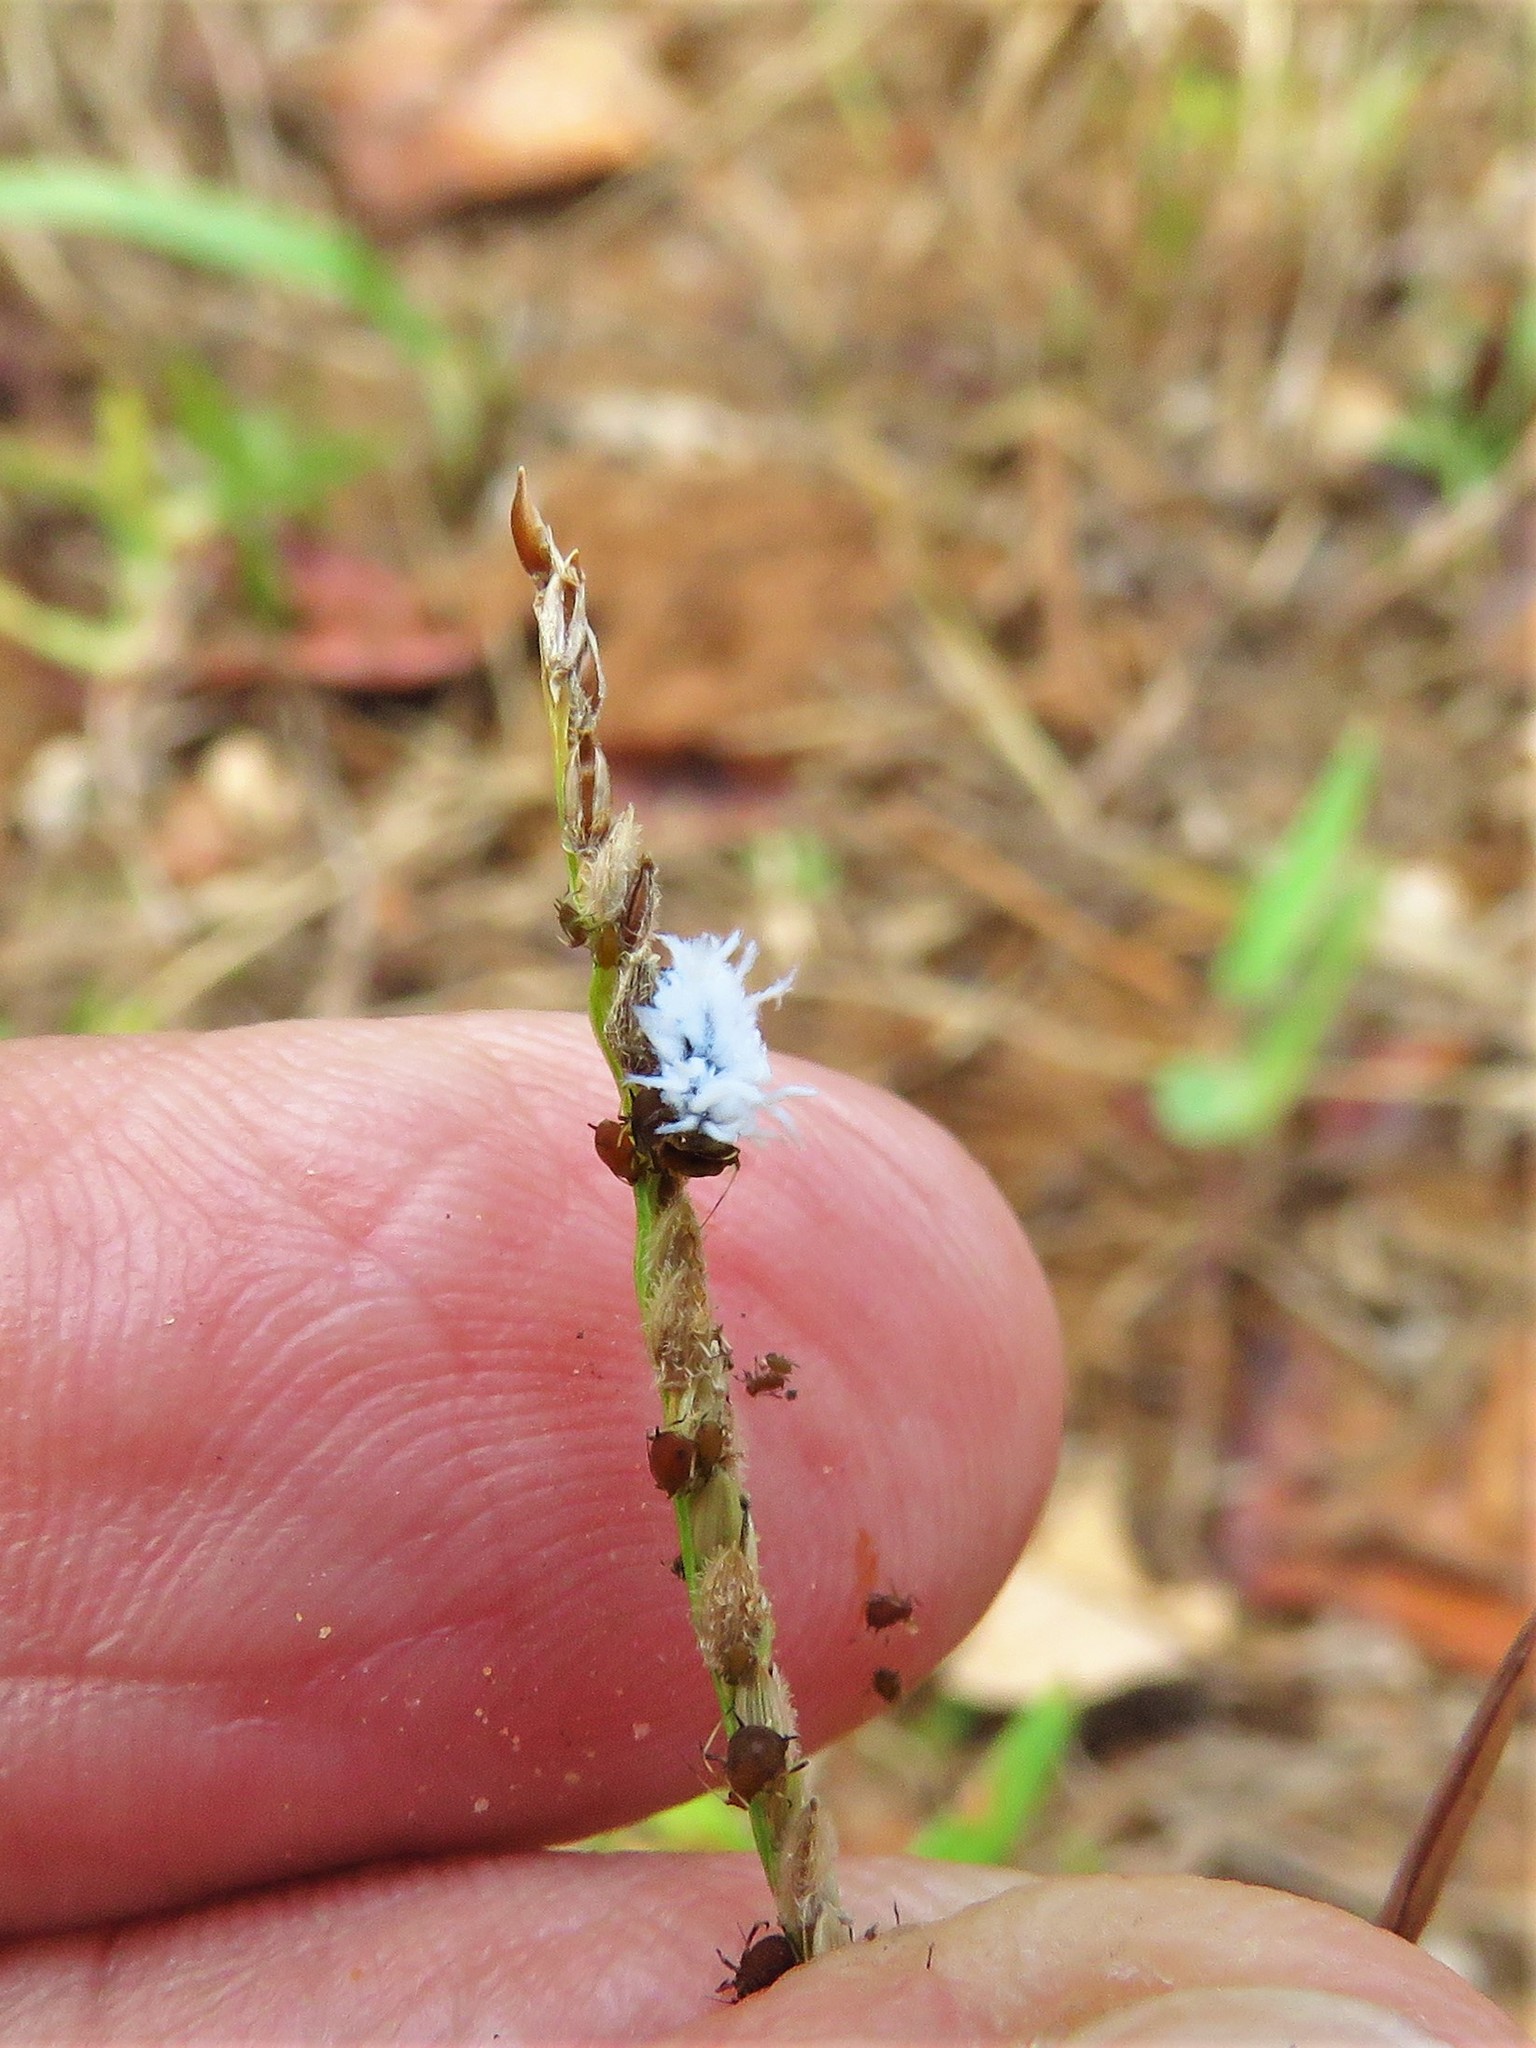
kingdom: Animalia
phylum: Arthropoda
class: Insecta
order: Coleoptera
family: Coccinellidae
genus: Cryptolaemus
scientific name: Cryptolaemus montrouzieri
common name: Mealybug destroyer
